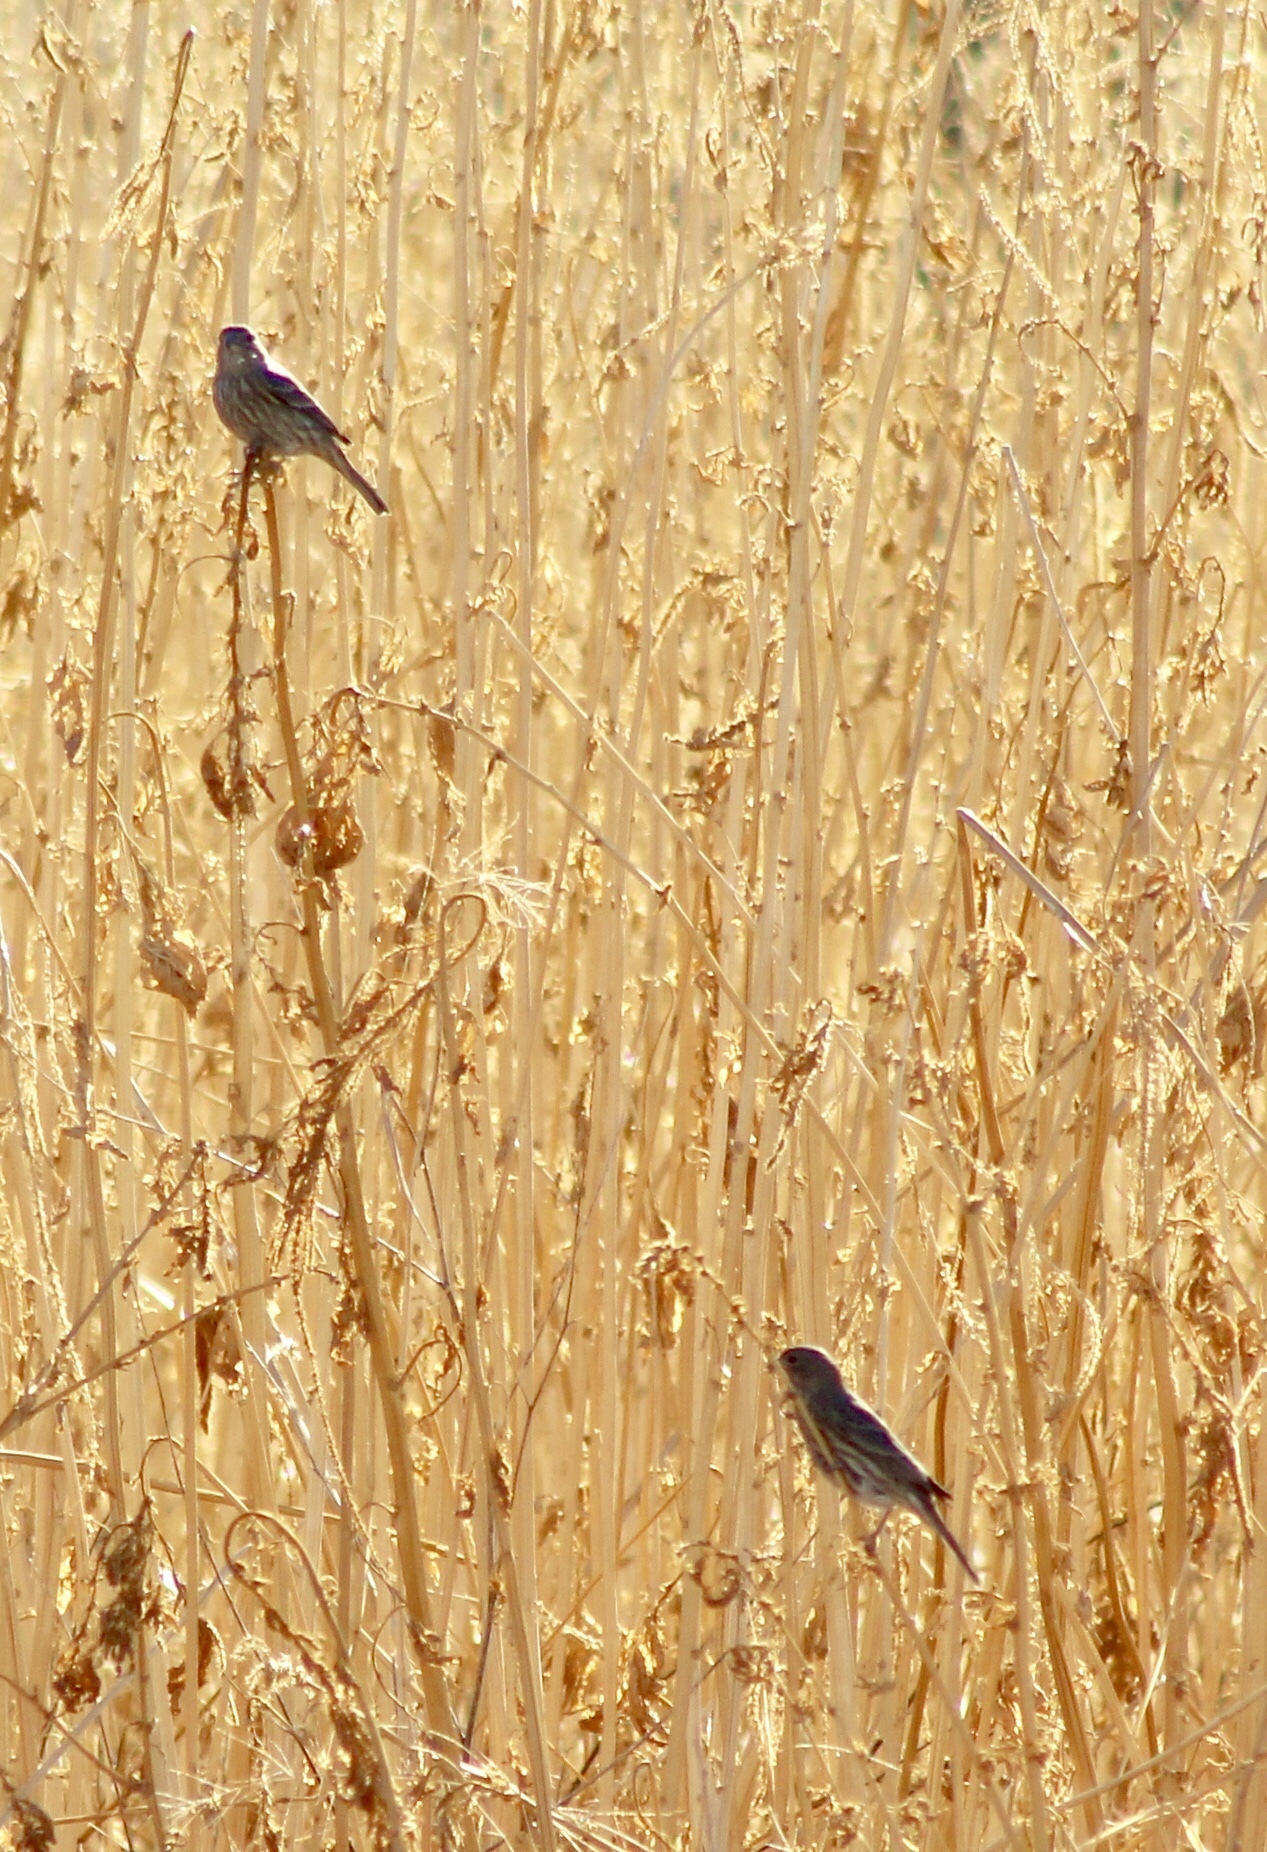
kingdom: Animalia
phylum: Chordata
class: Aves
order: Passeriformes
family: Fringillidae
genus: Haemorhous
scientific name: Haemorhous mexicanus
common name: House finch
